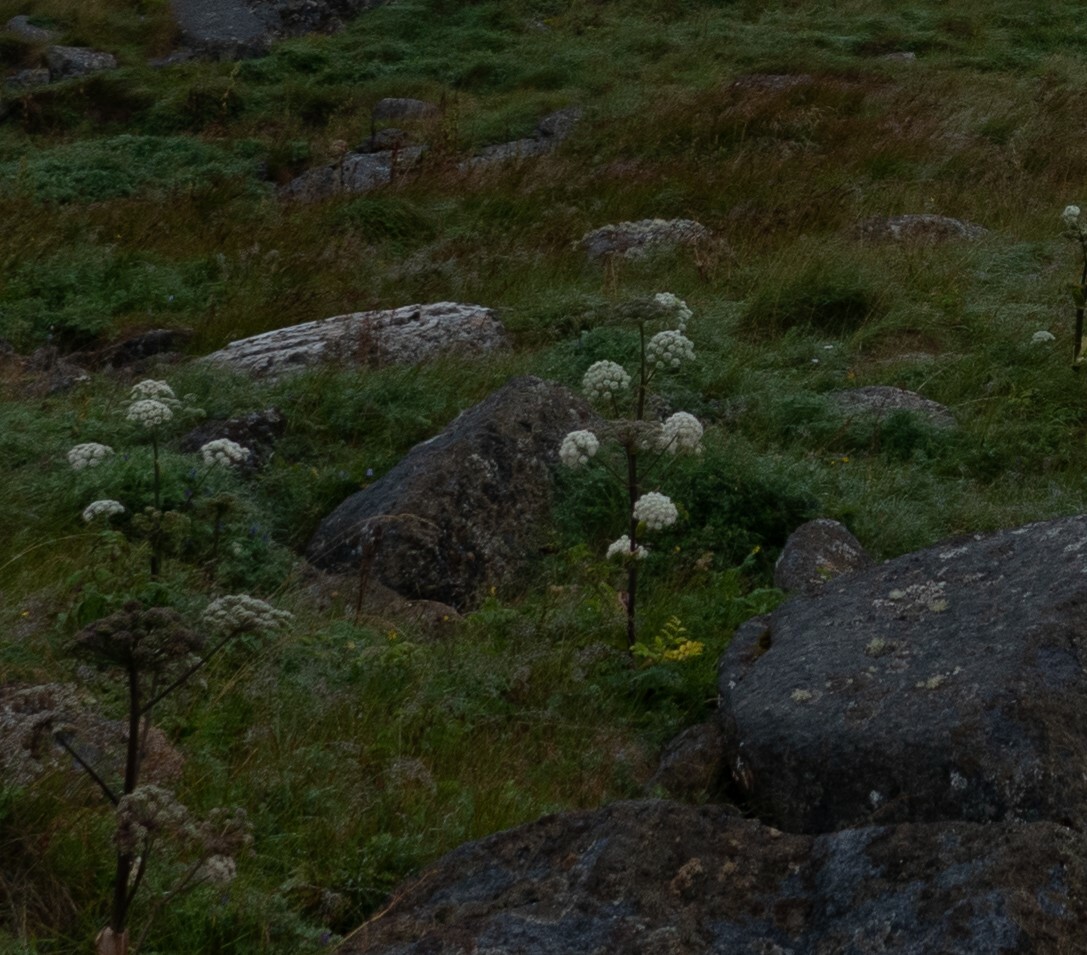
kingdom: Plantae
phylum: Tracheophyta
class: Magnoliopsida
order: Apiales
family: Apiaceae
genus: Angelica
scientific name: Angelica sylvestris
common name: Wild angelica
